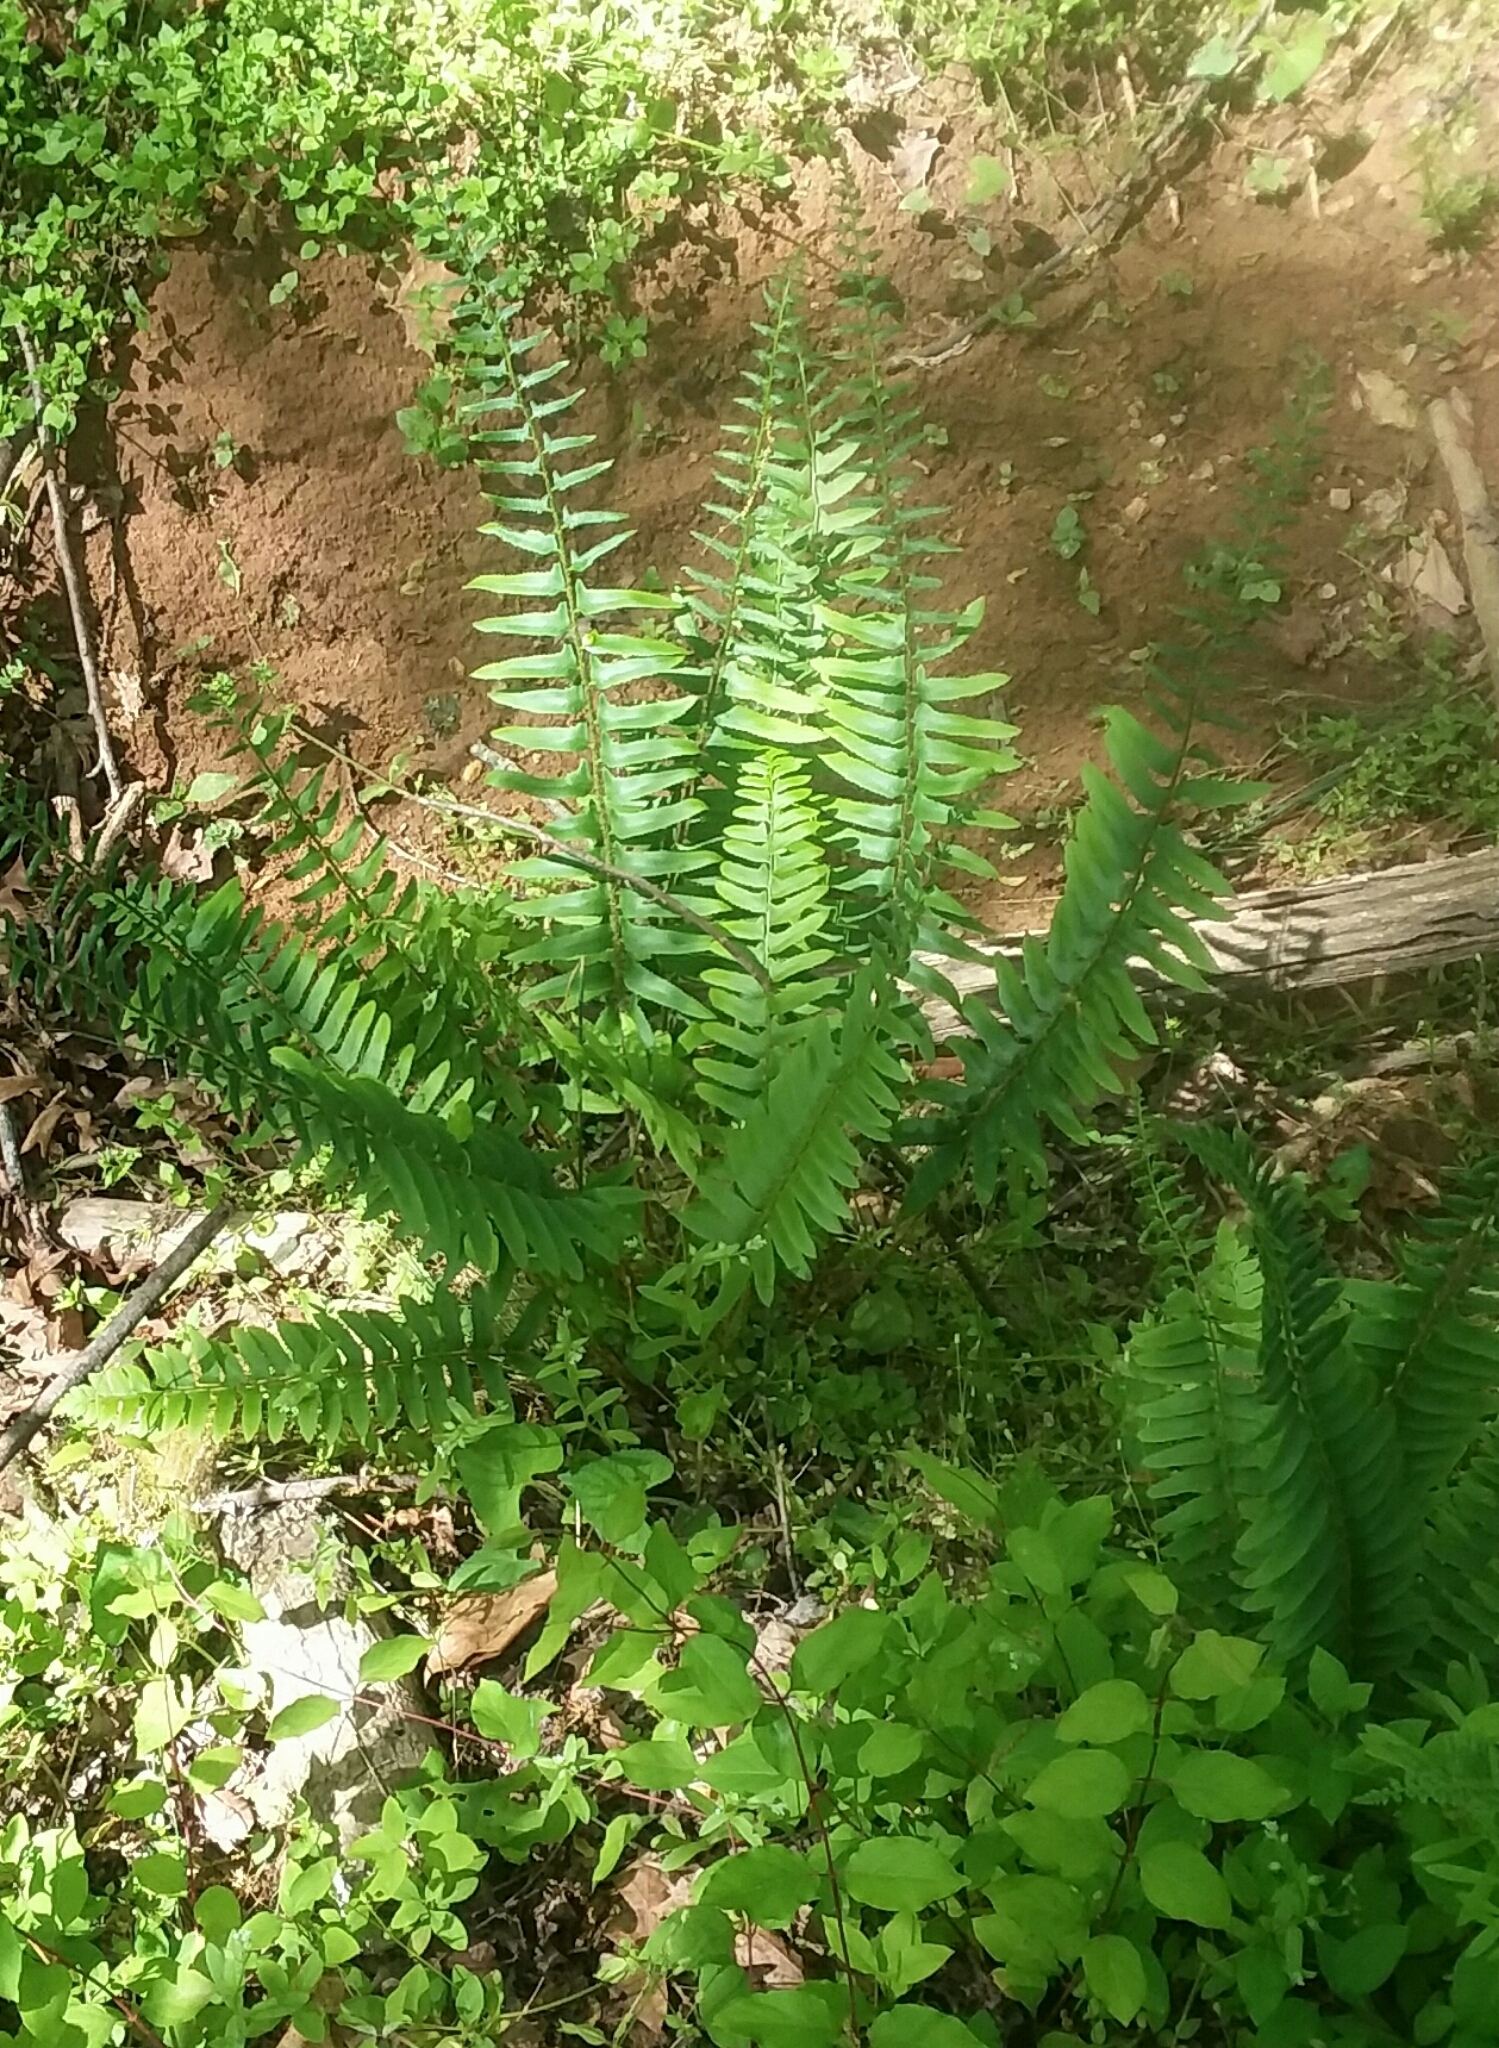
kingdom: Plantae
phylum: Tracheophyta
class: Polypodiopsida
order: Polypodiales
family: Dryopteridaceae
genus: Polystichum
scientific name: Polystichum acrostichoides
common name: Christmas fern
